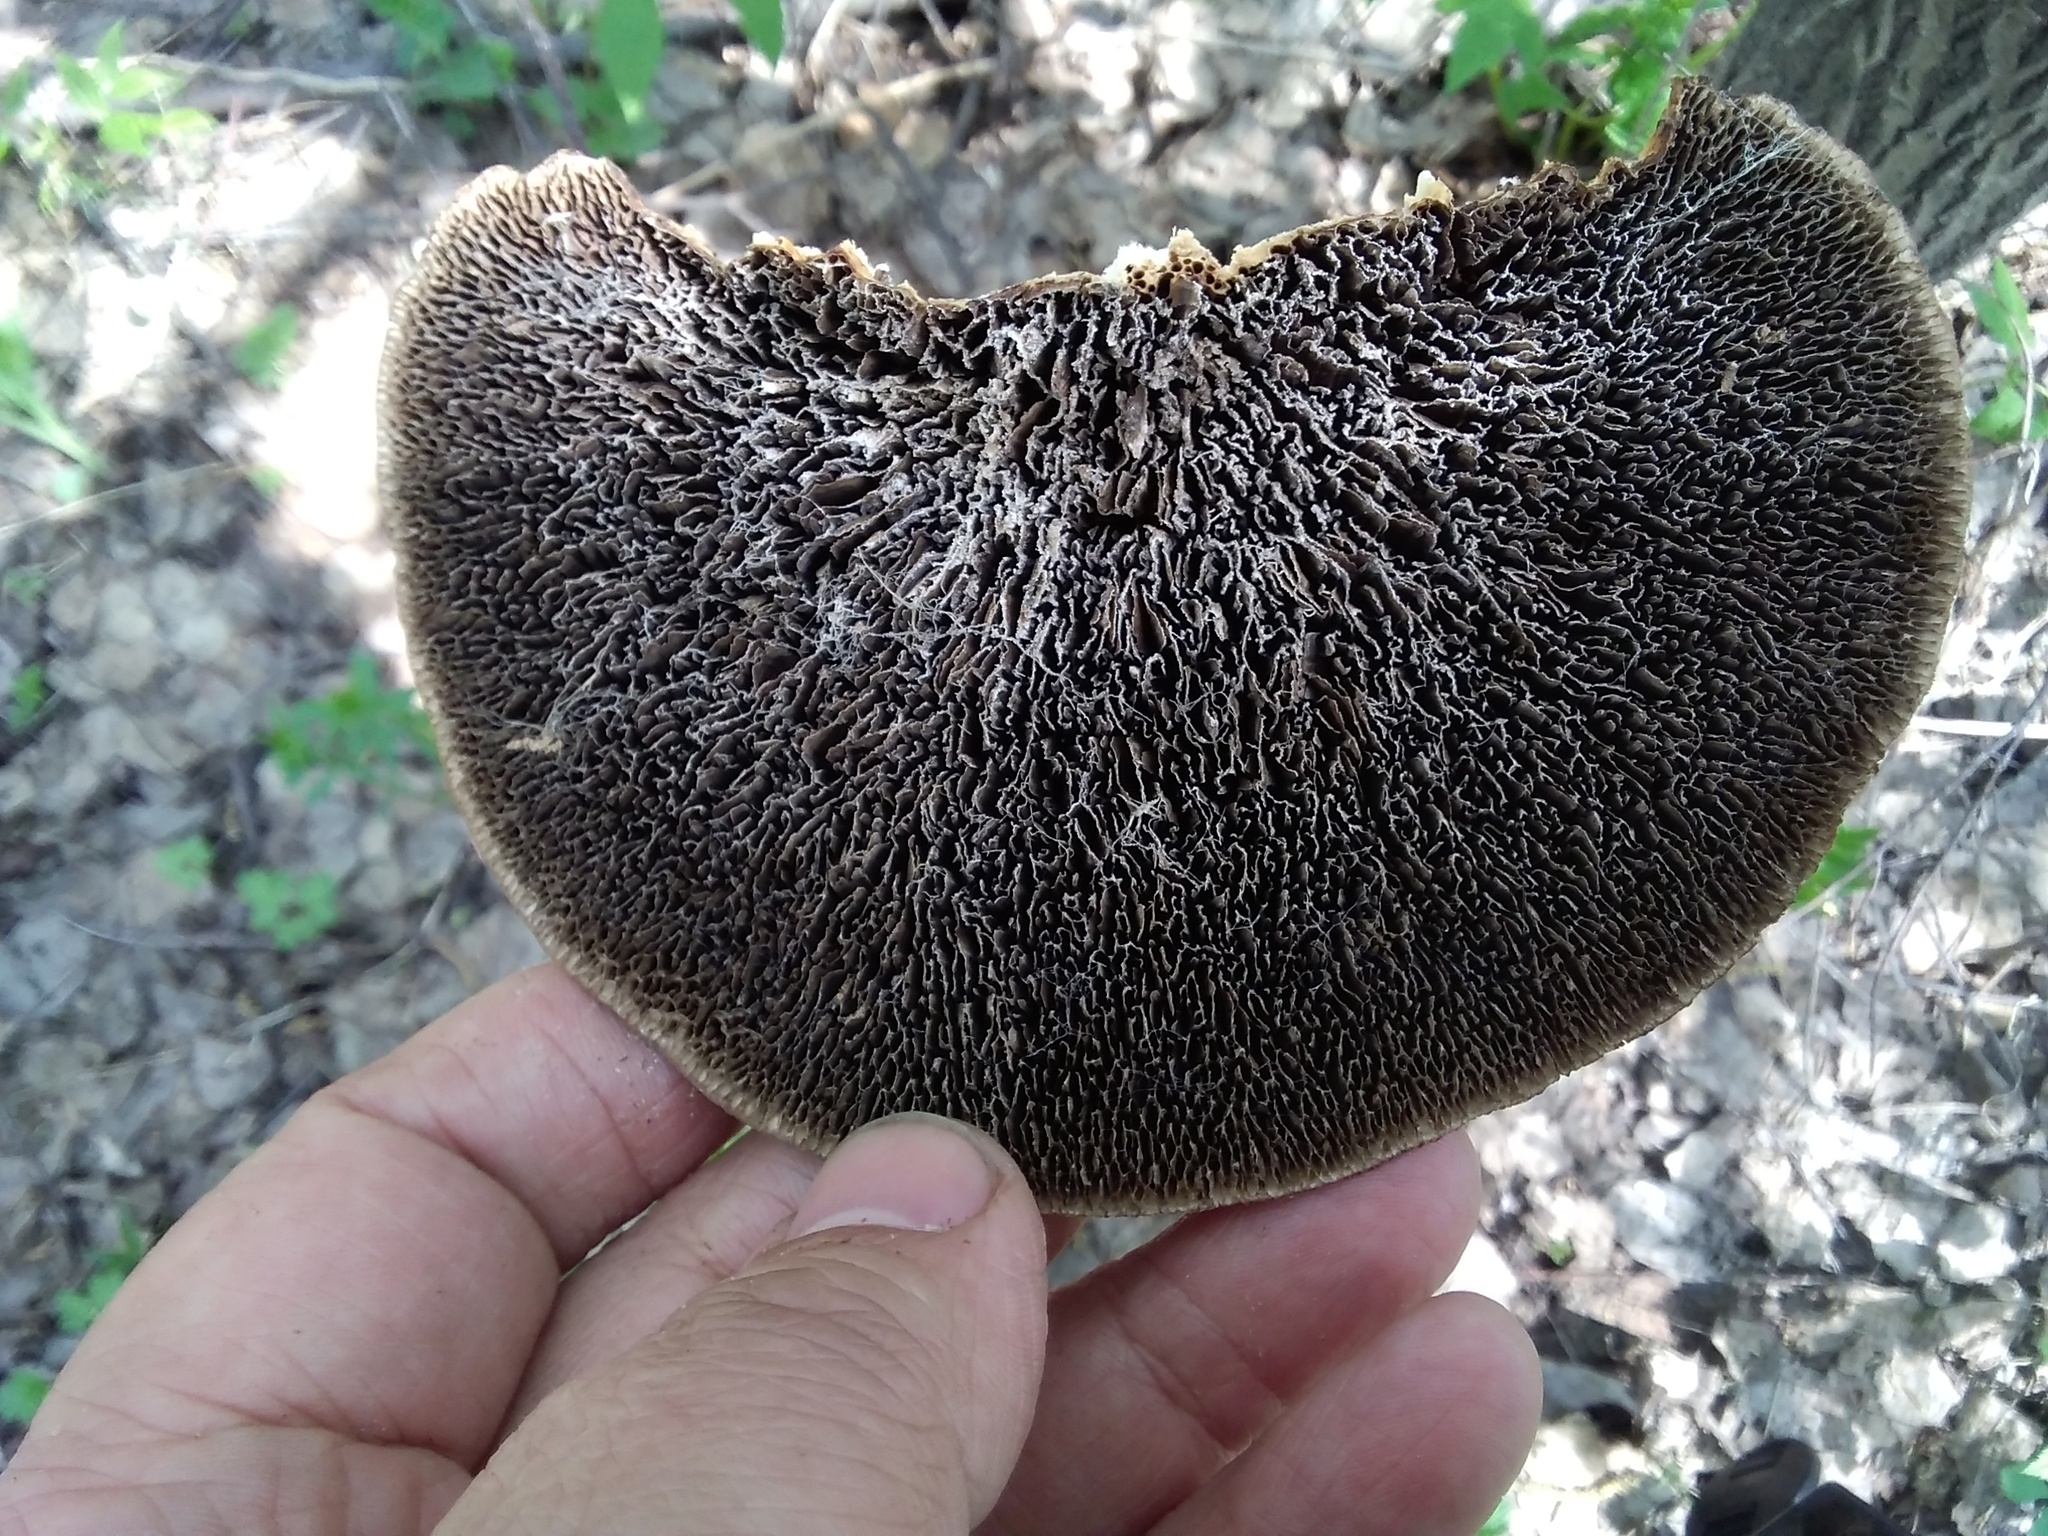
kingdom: Fungi
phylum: Basidiomycota
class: Agaricomycetes
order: Polyporales
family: Polyporaceae
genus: Daedaleopsis
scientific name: Daedaleopsis confragosa
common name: Blushing bracket
